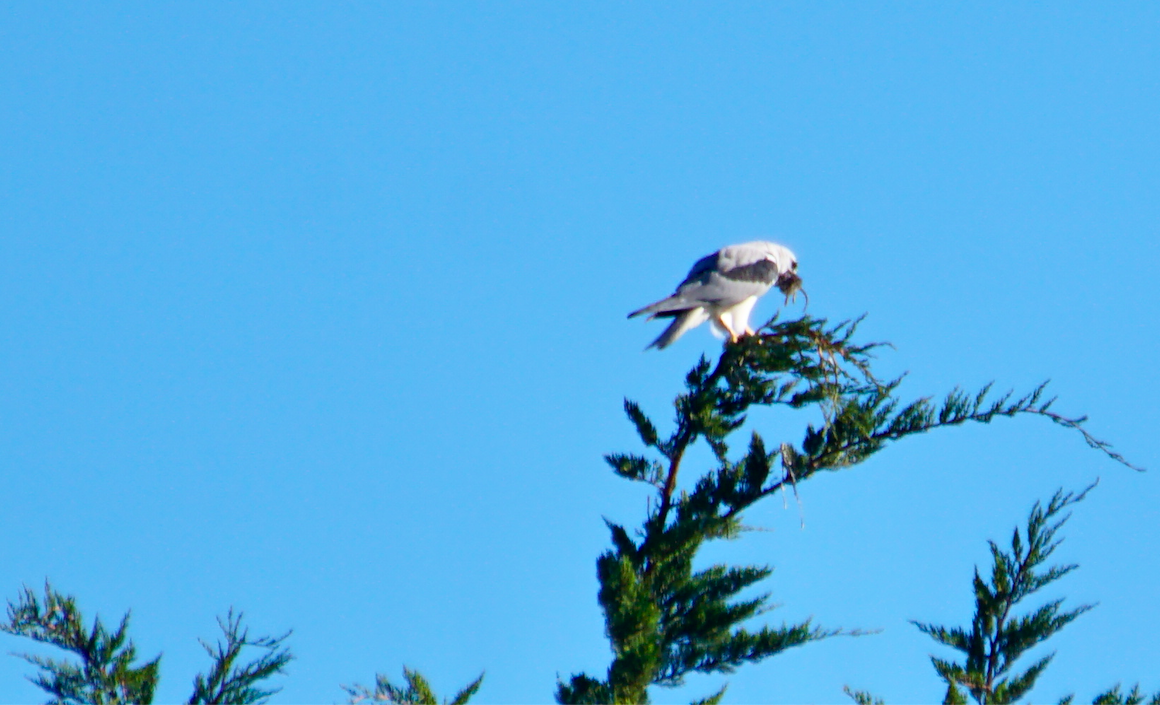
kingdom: Animalia
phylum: Chordata
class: Aves
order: Accipitriformes
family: Accipitridae
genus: Elanus
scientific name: Elanus leucurus
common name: White-tailed kite
